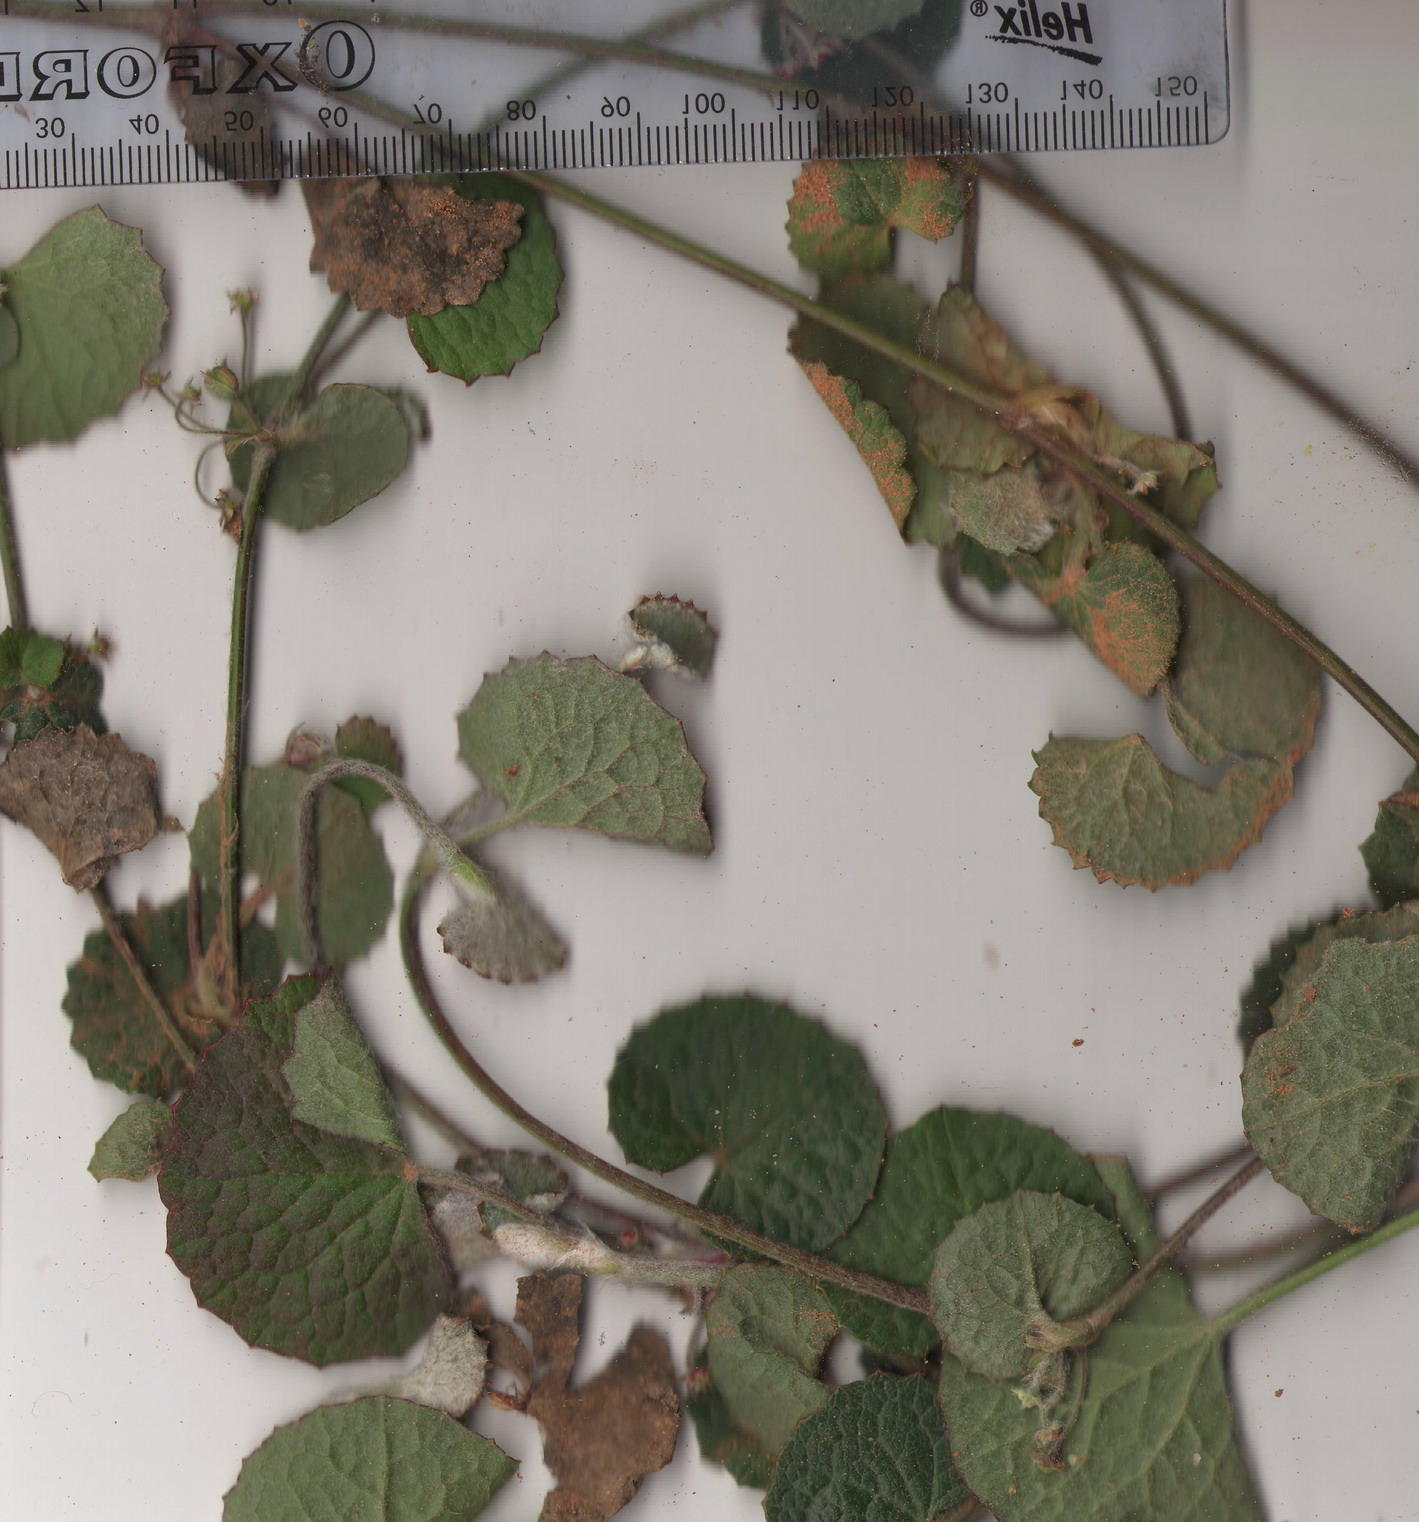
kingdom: Plantae
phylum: Tracheophyta
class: Magnoliopsida
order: Apiales
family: Apiaceae
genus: Centella
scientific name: Centella lanata
